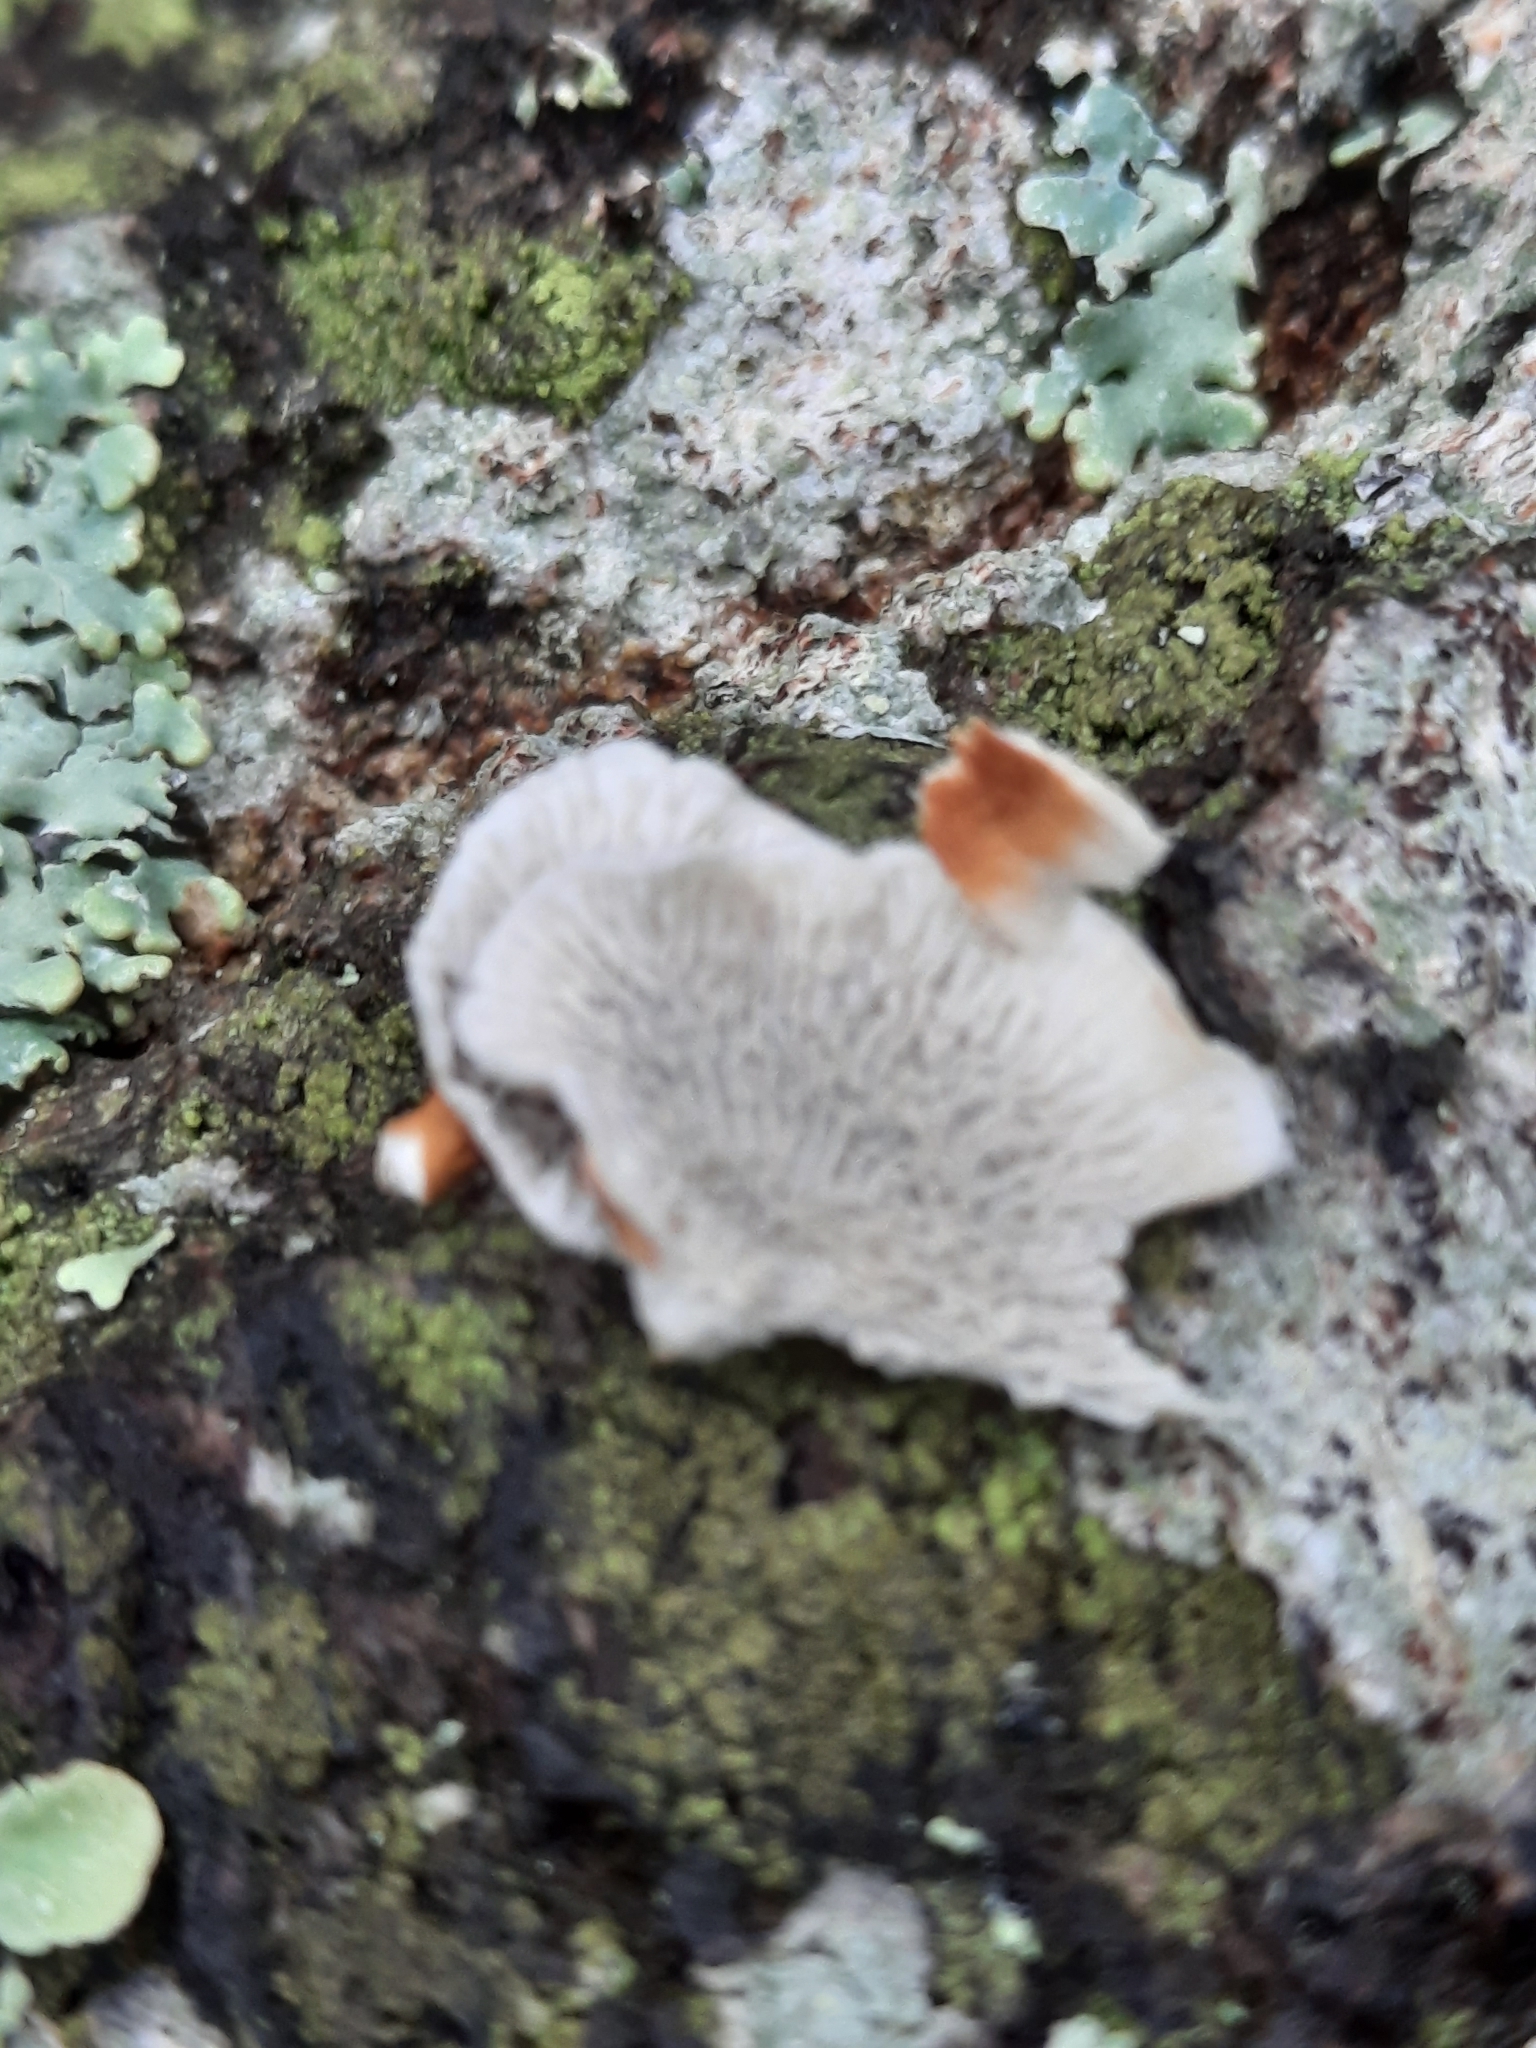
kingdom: Fungi
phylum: Basidiomycota
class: Agaricomycetes
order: Amylocorticiales
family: Amylocorticiaceae
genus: Plicaturopsis
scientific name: Plicaturopsis crispa
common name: Crimped gill
